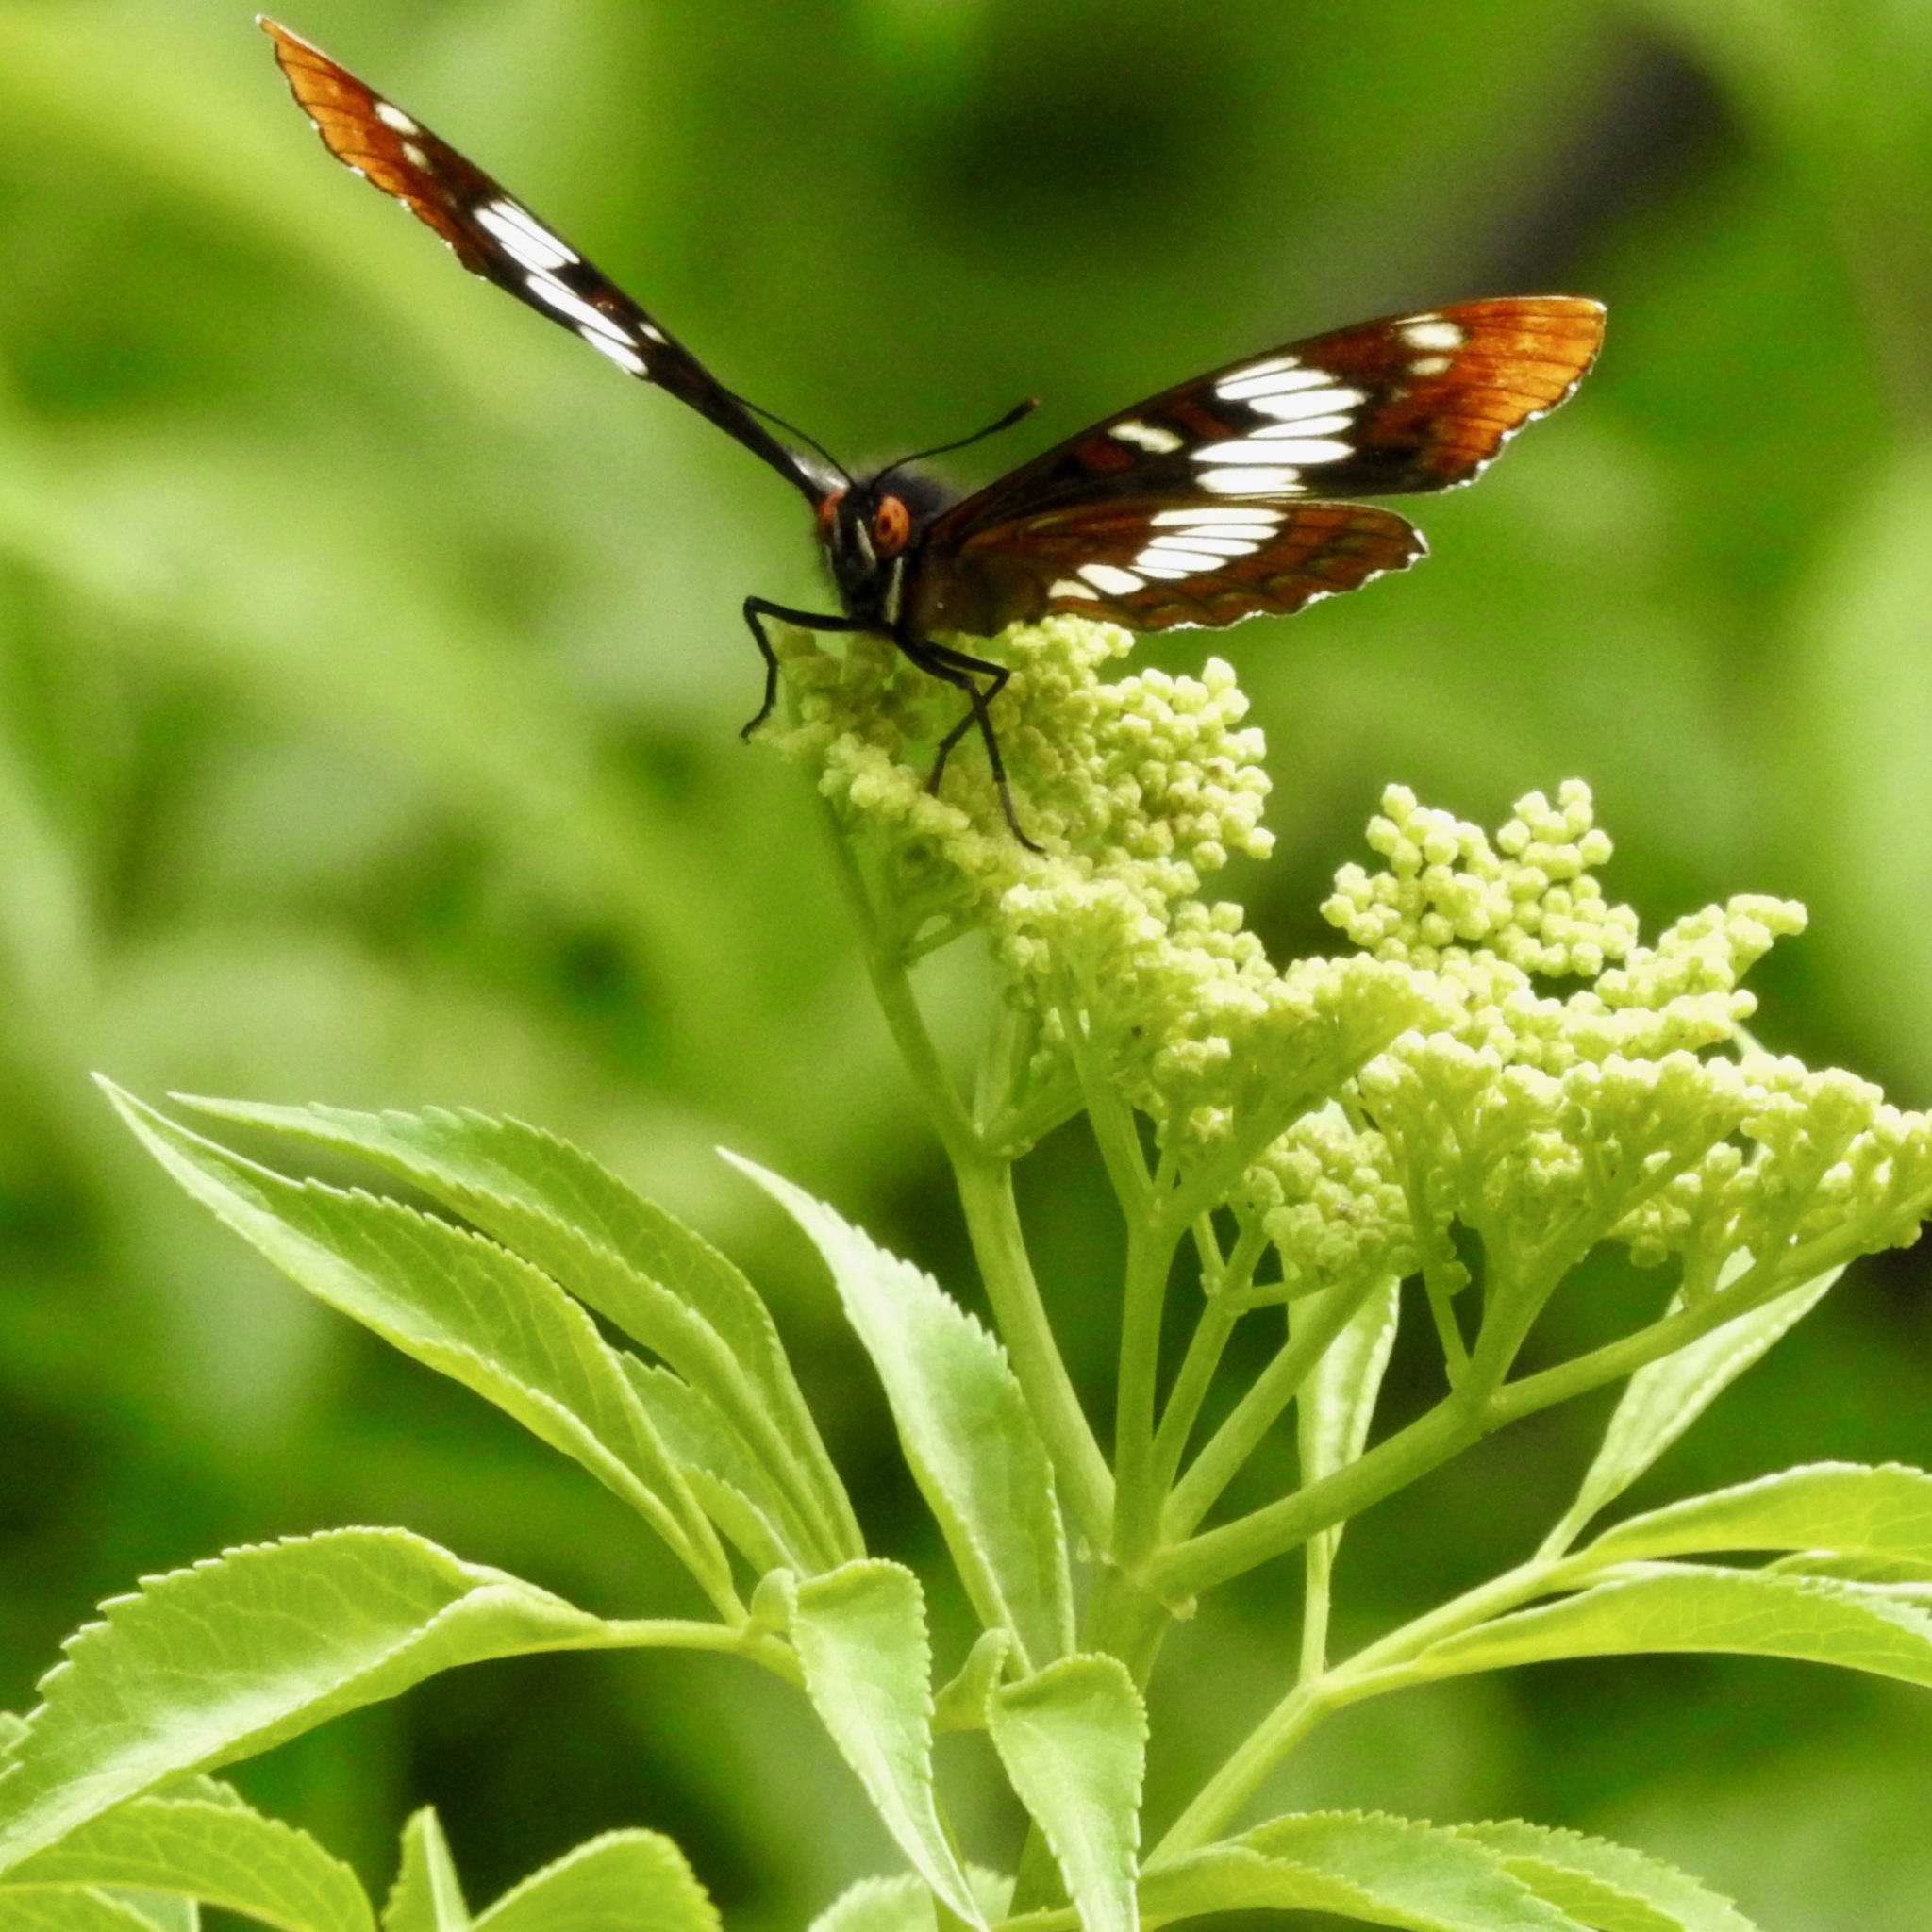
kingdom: Animalia
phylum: Arthropoda
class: Insecta
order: Lepidoptera
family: Nymphalidae
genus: Limenitis
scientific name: Limenitis lorquini
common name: Lorquin's admiral
